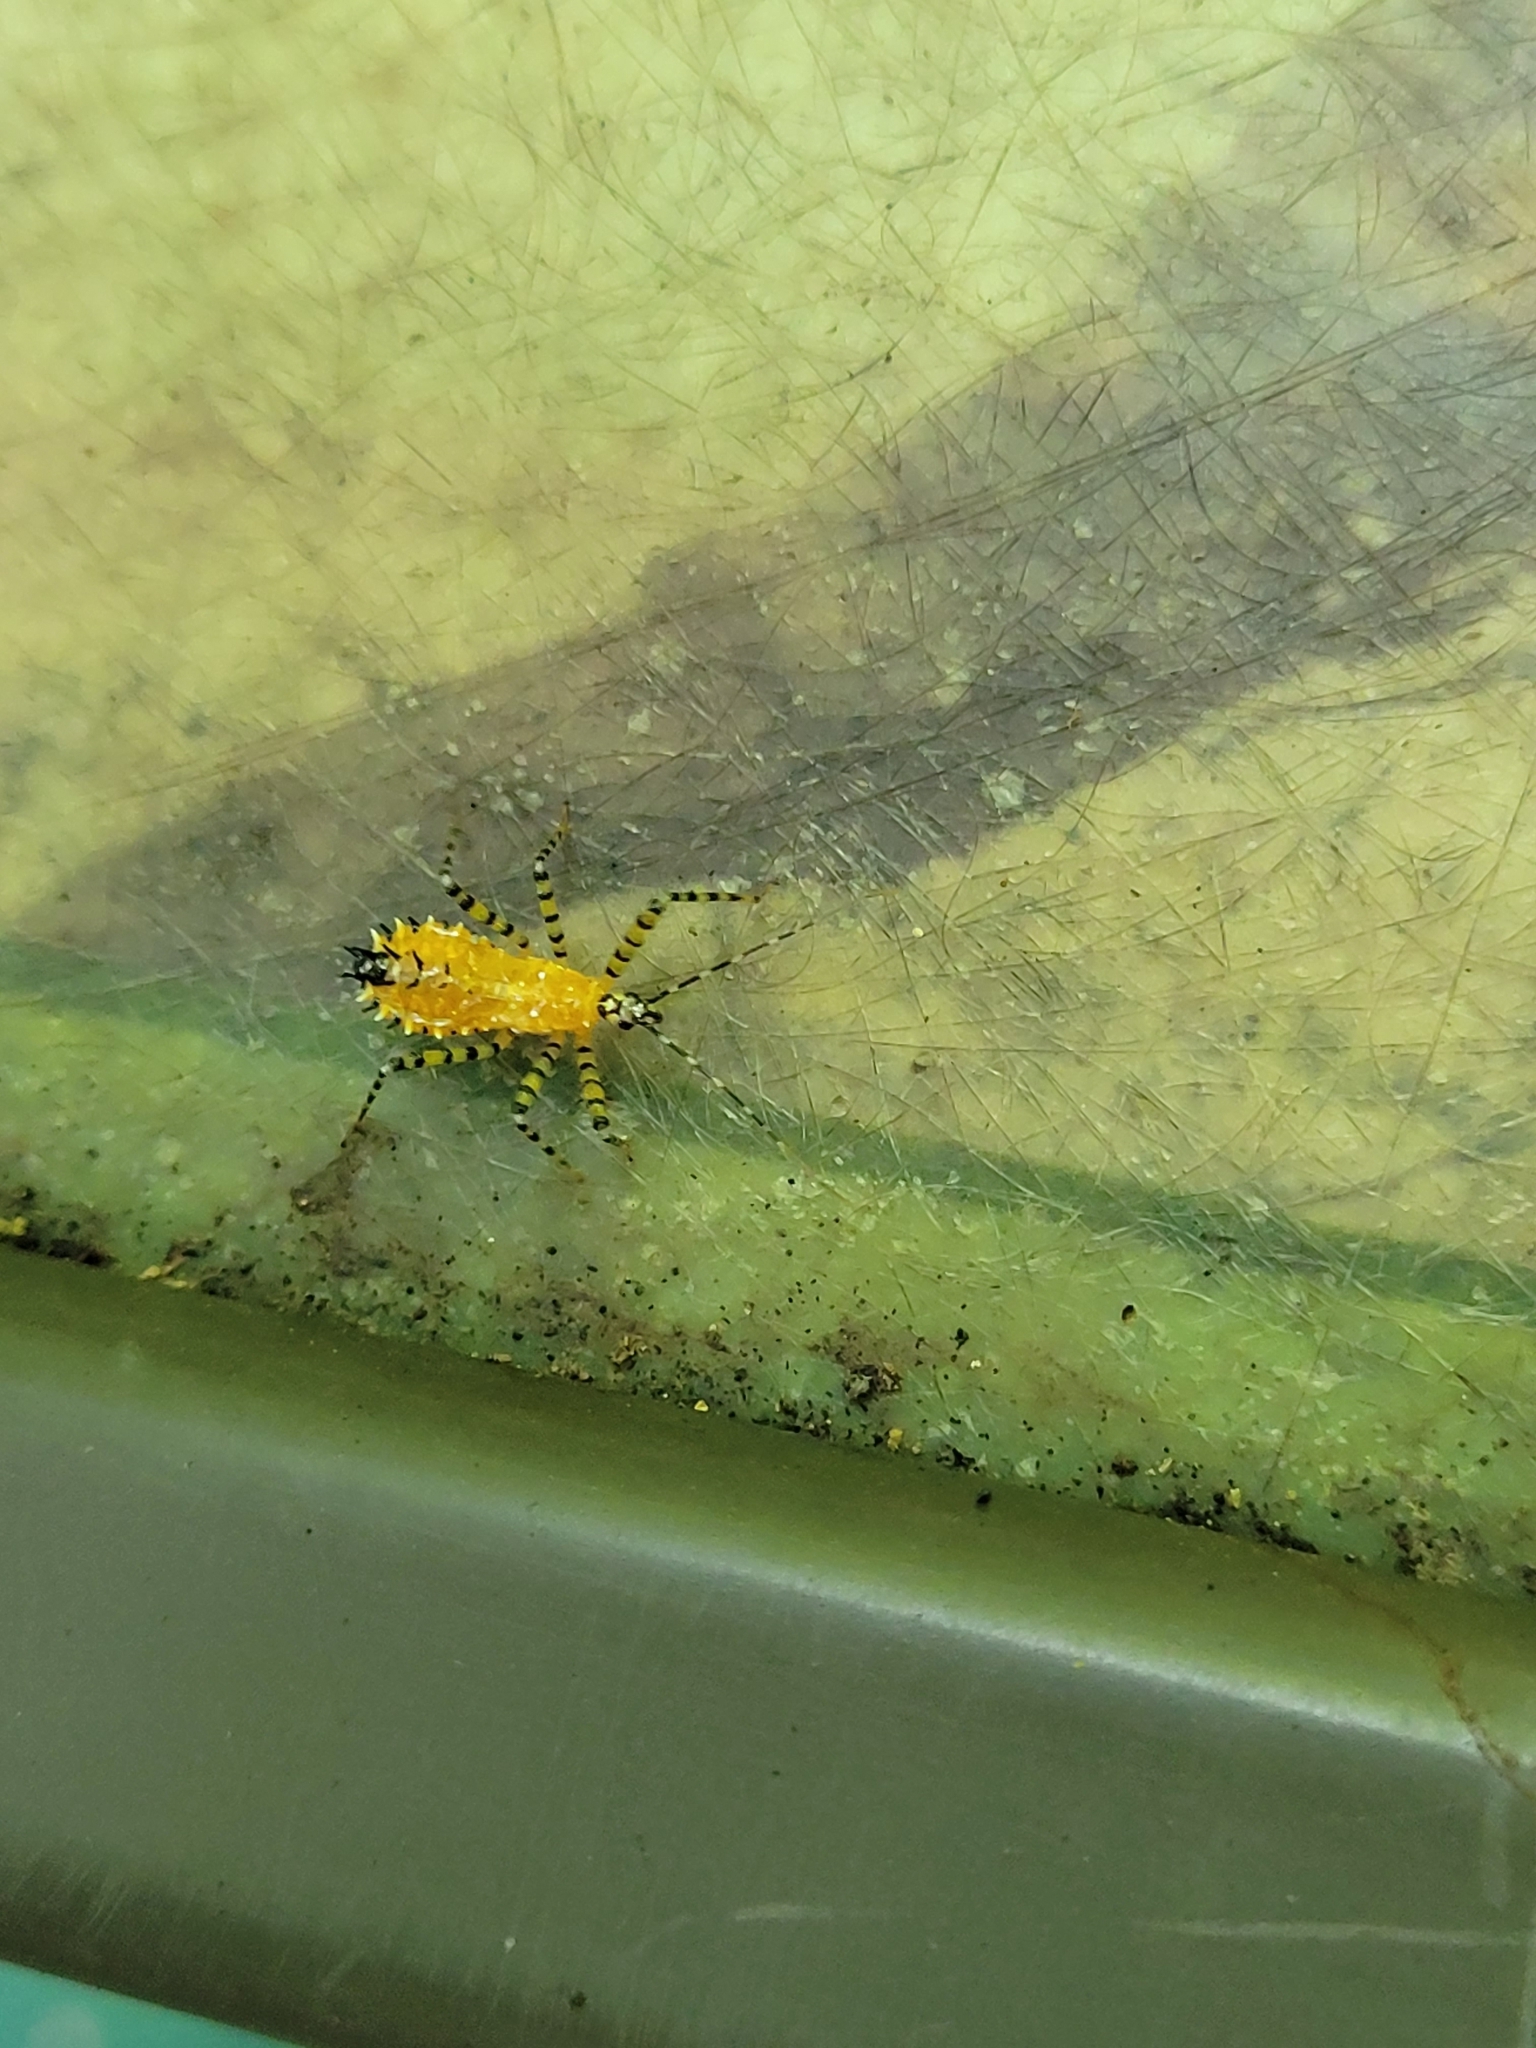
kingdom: Animalia
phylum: Arthropoda
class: Insecta
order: Hemiptera
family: Reduviidae
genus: Pselliopus
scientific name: Pselliopus barberi
